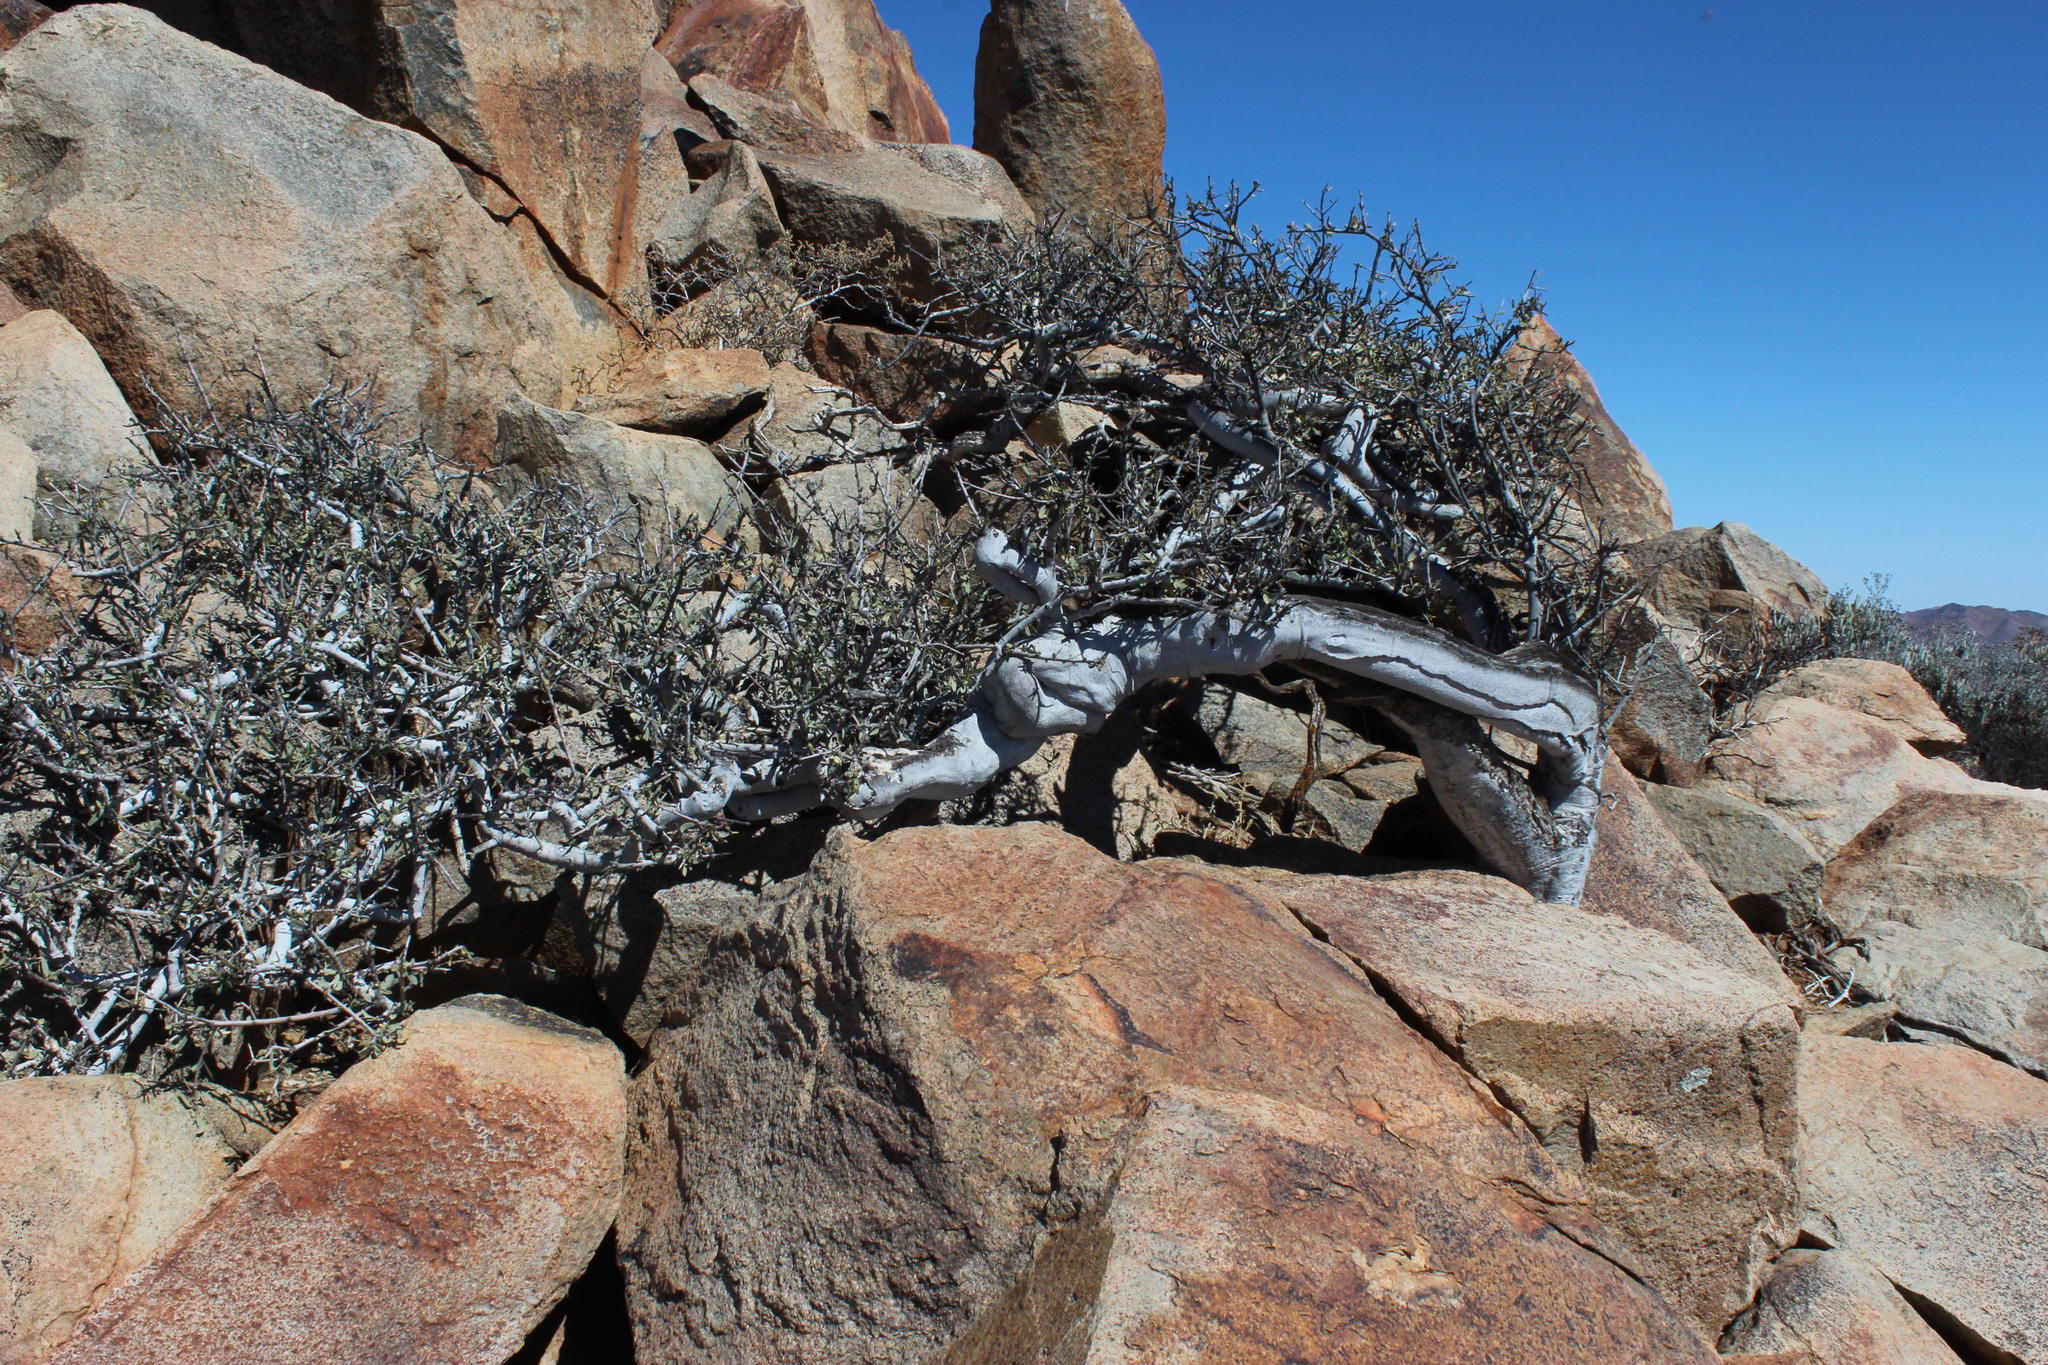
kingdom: Plantae
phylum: Tracheophyta
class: Magnoliopsida
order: Brassicales
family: Capparaceae
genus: Boscia
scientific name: Boscia albitrunca
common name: Caper bush
